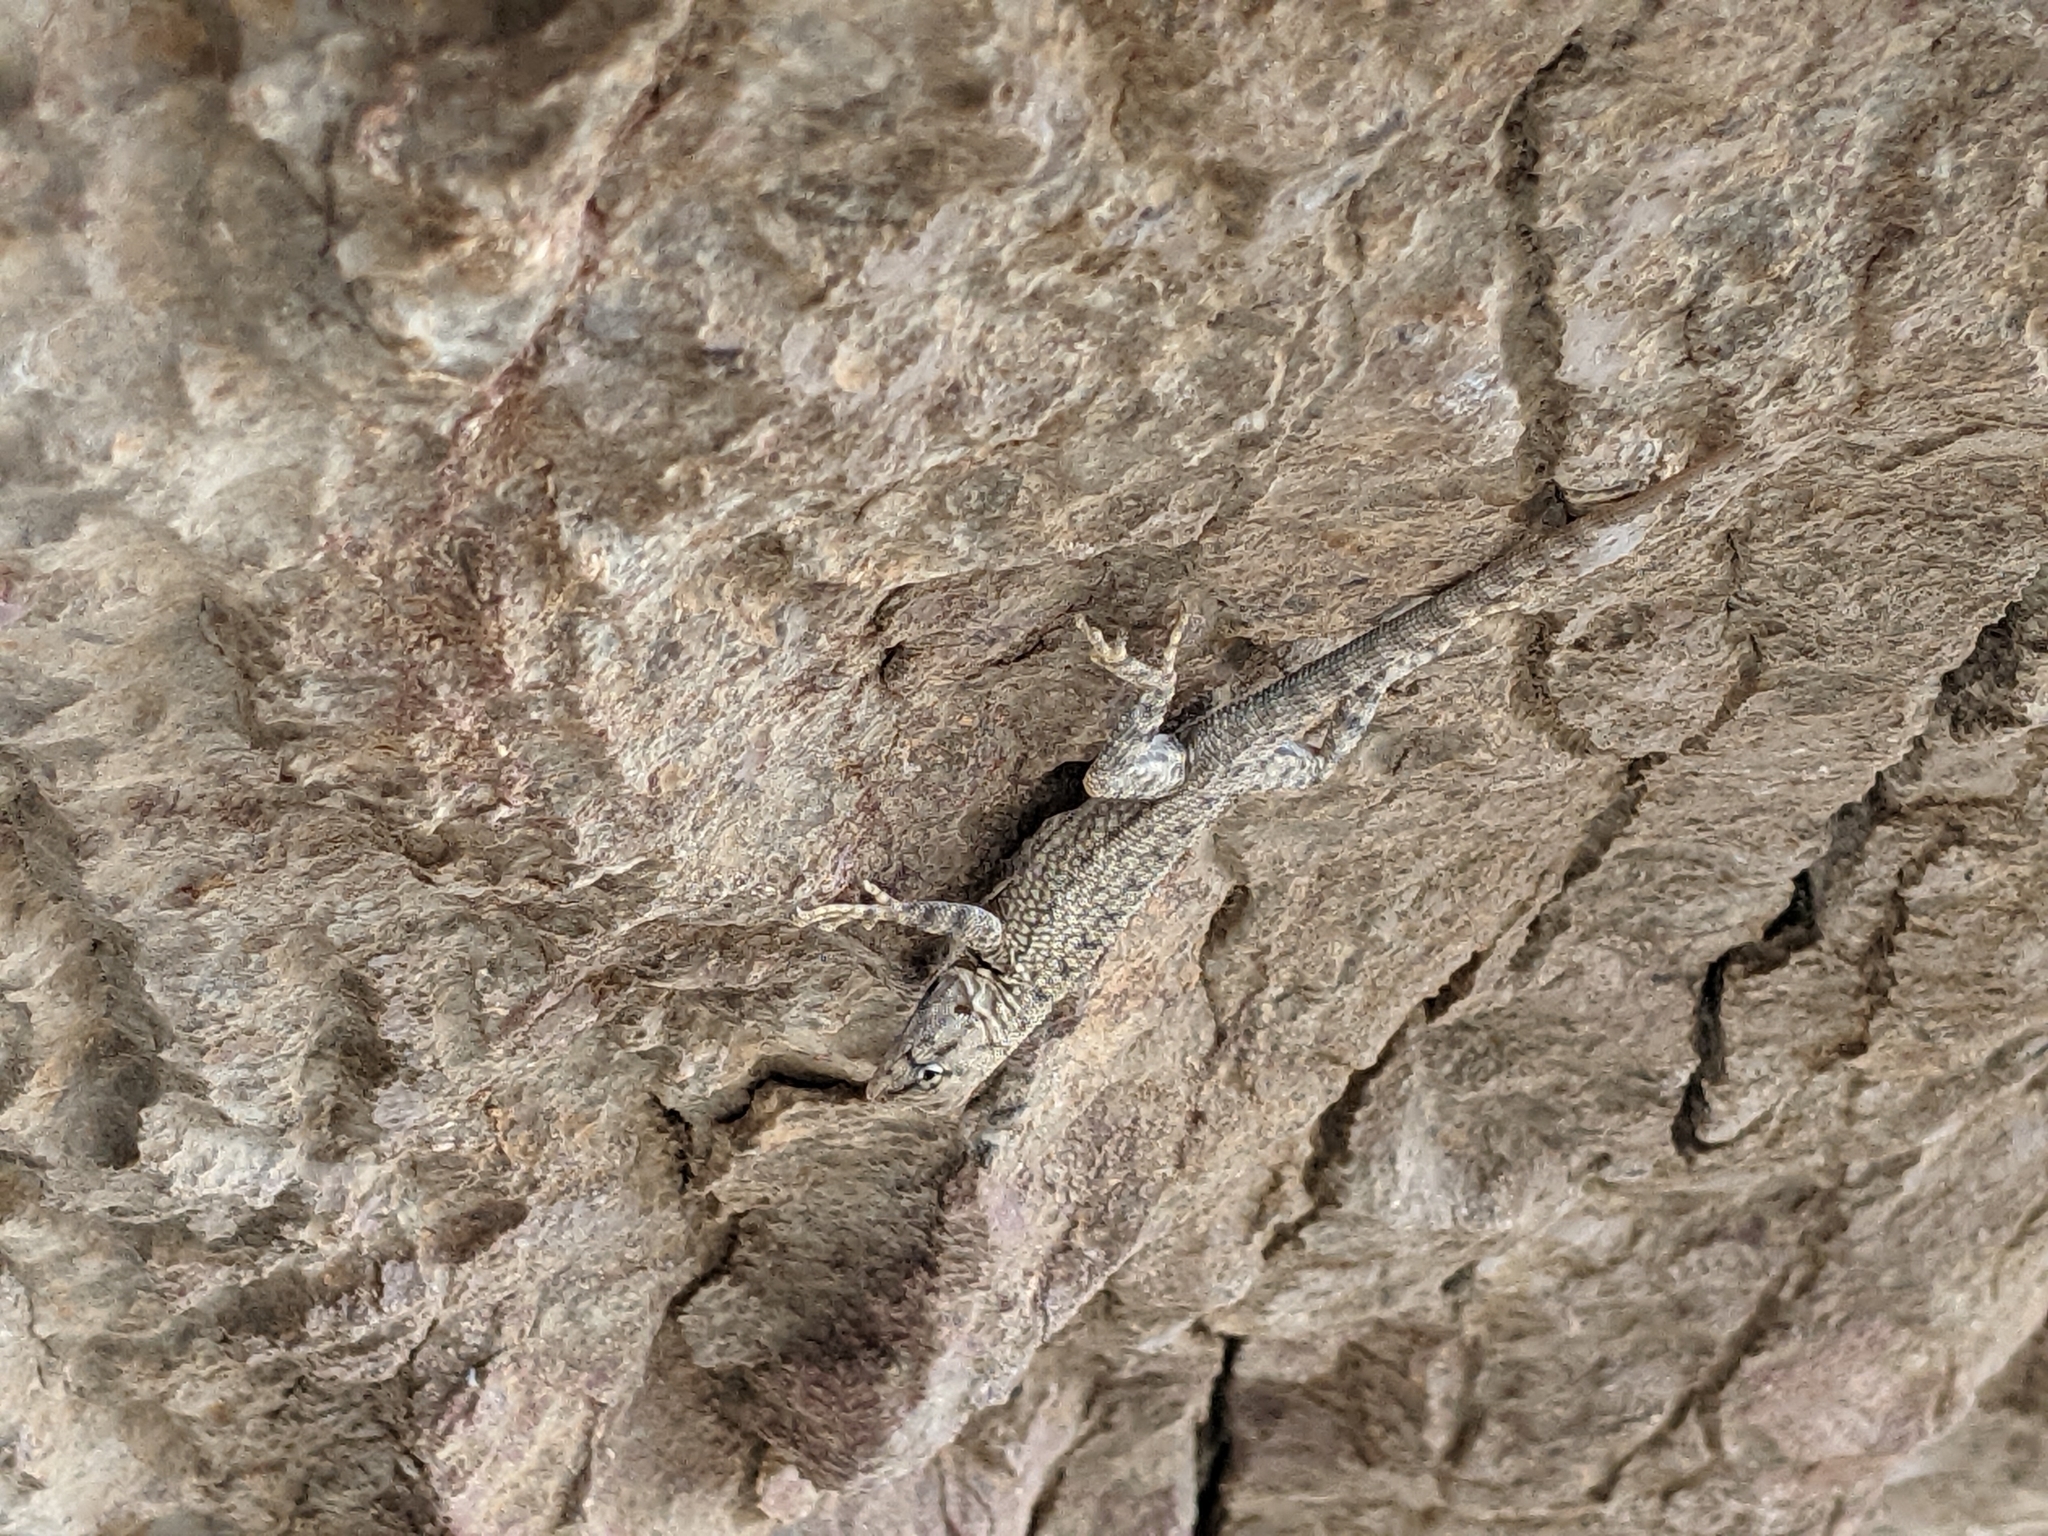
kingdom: Animalia
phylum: Chordata
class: Squamata
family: Phrynosomatidae
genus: Sceloporus
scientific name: Sceloporus merriami
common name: Canyon lizard
